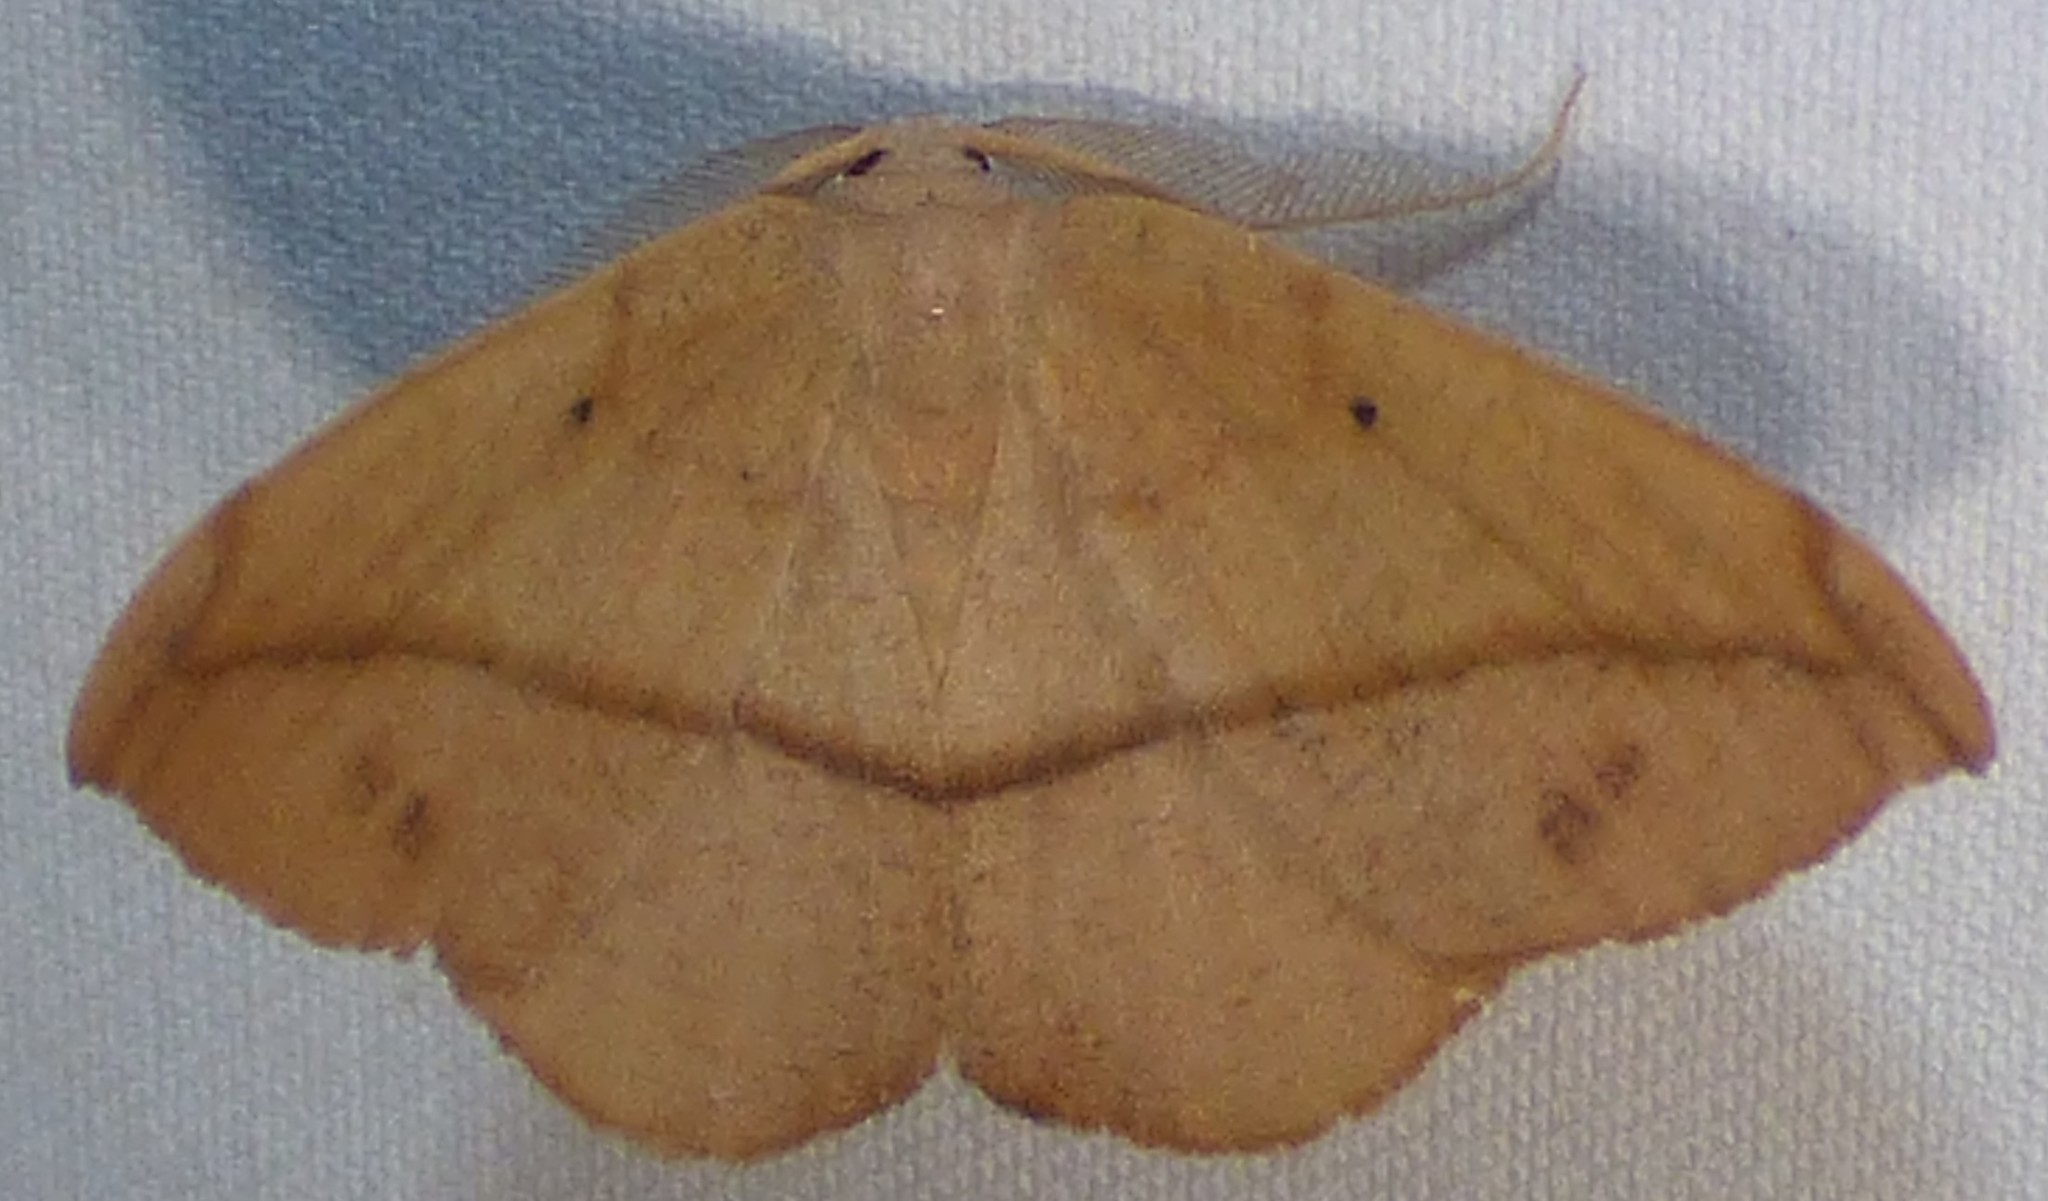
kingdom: Animalia
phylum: Arthropoda
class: Insecta
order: Lepidoptera
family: Geometridae
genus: Patalene
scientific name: Patalene olyzonaria
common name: Juniper geometer moth
